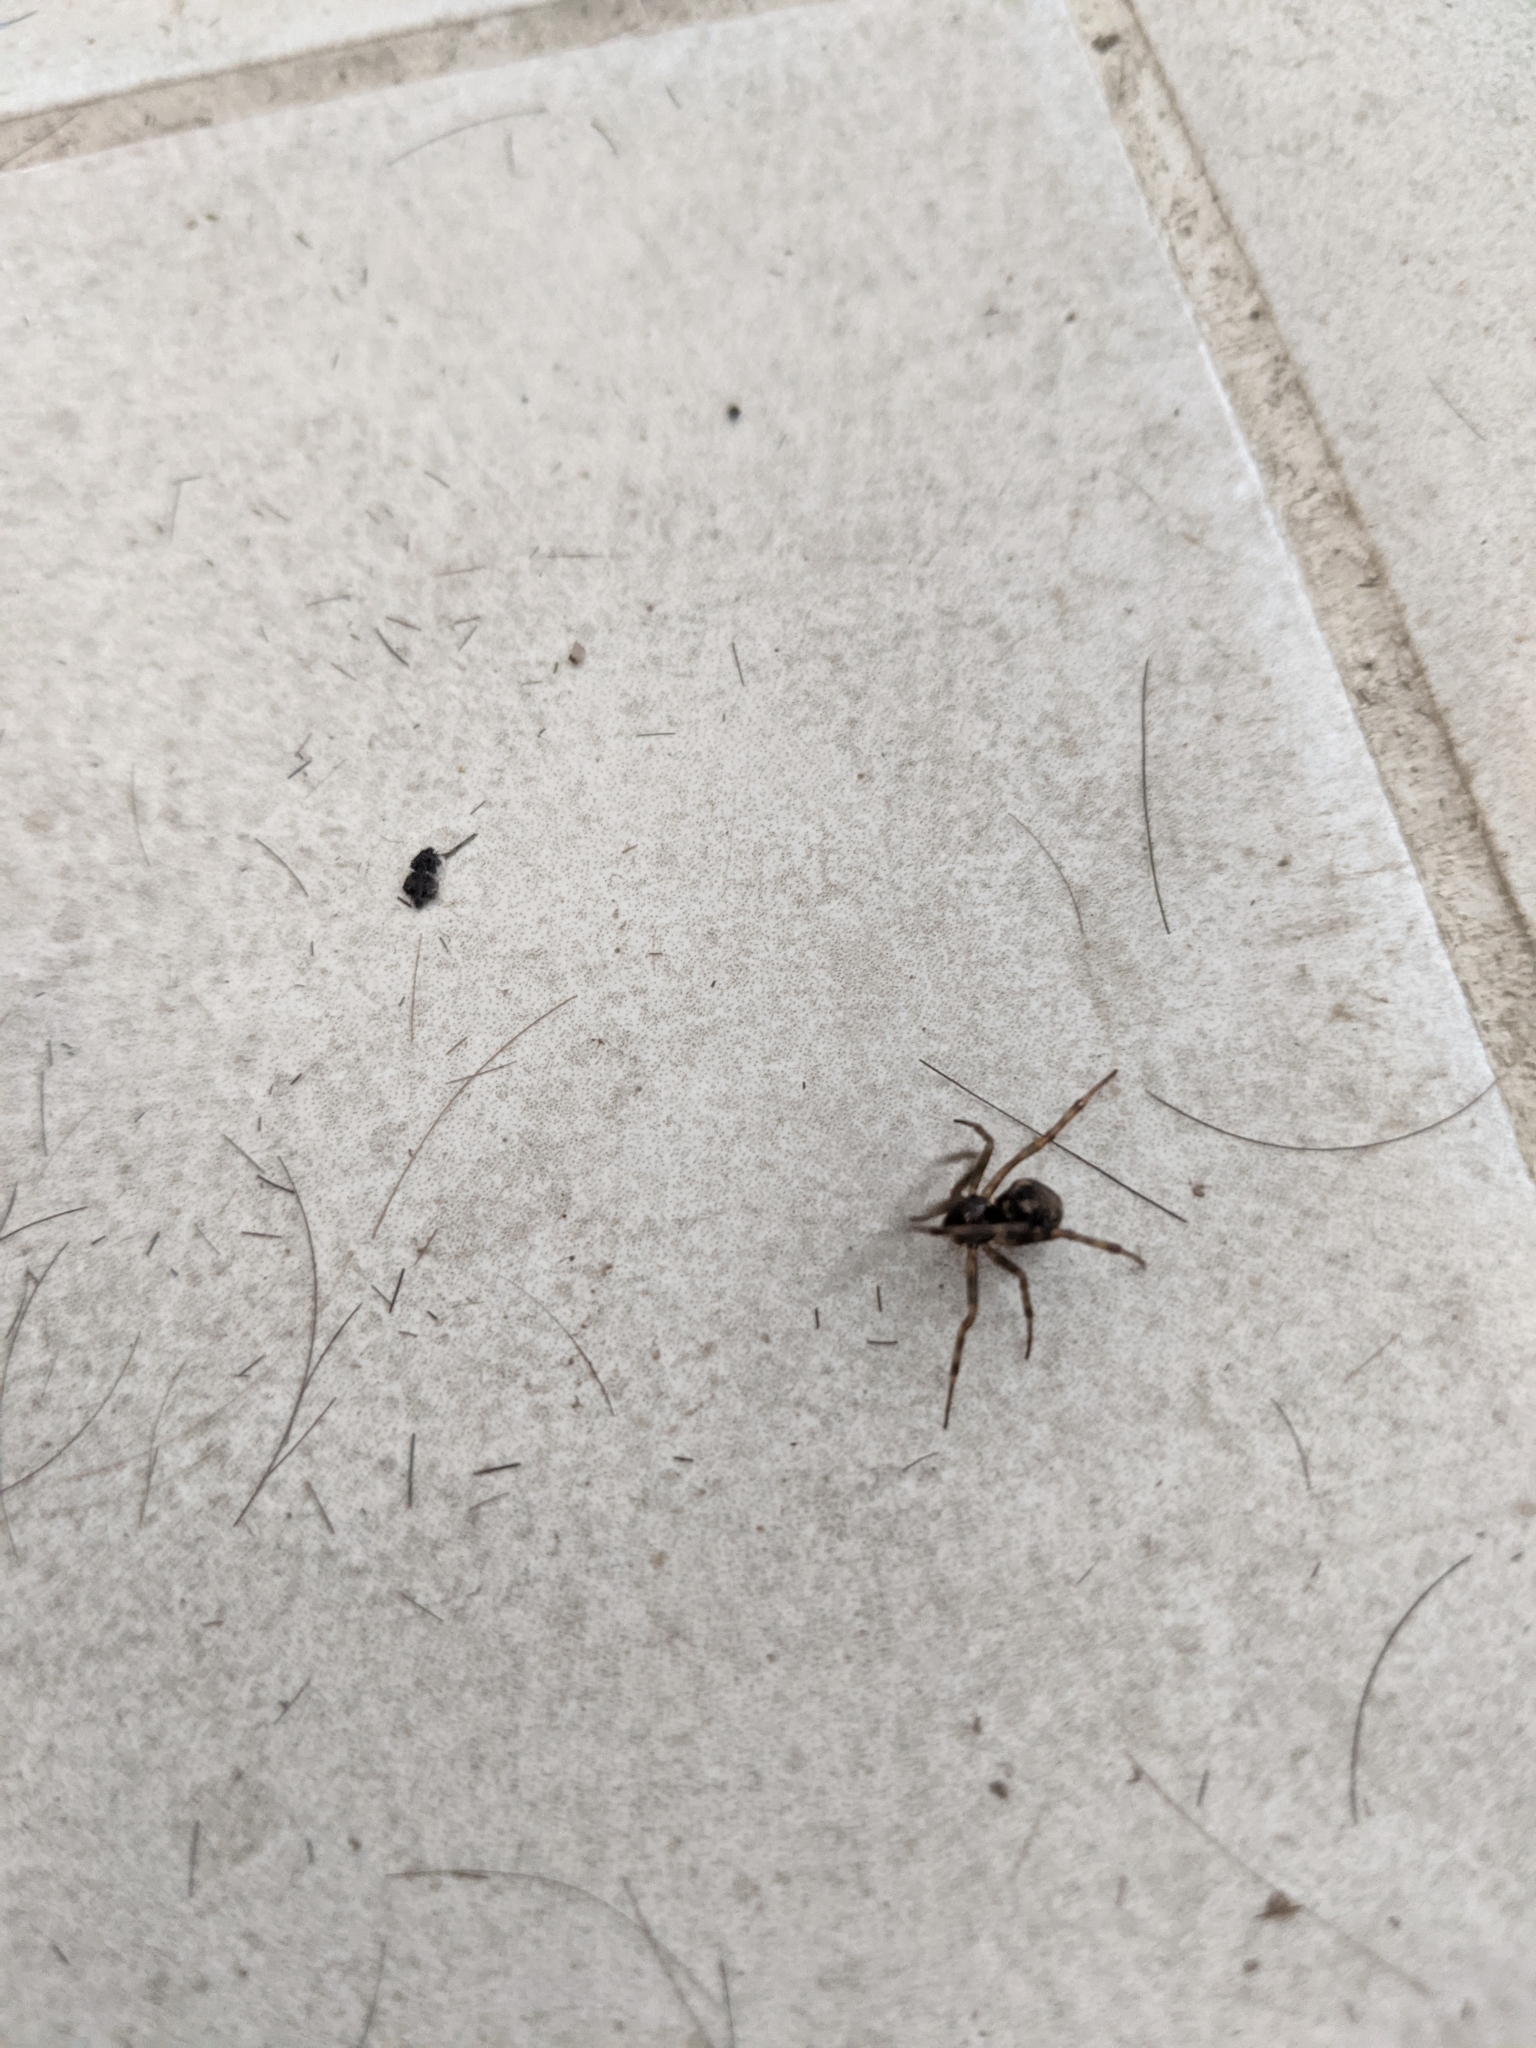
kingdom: Animalia
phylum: Arthropoda
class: Arachnida
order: Araneae
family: Theridiidae
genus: Steatoda
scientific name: Steatoda triangulosa
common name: Triangulate bud spider
